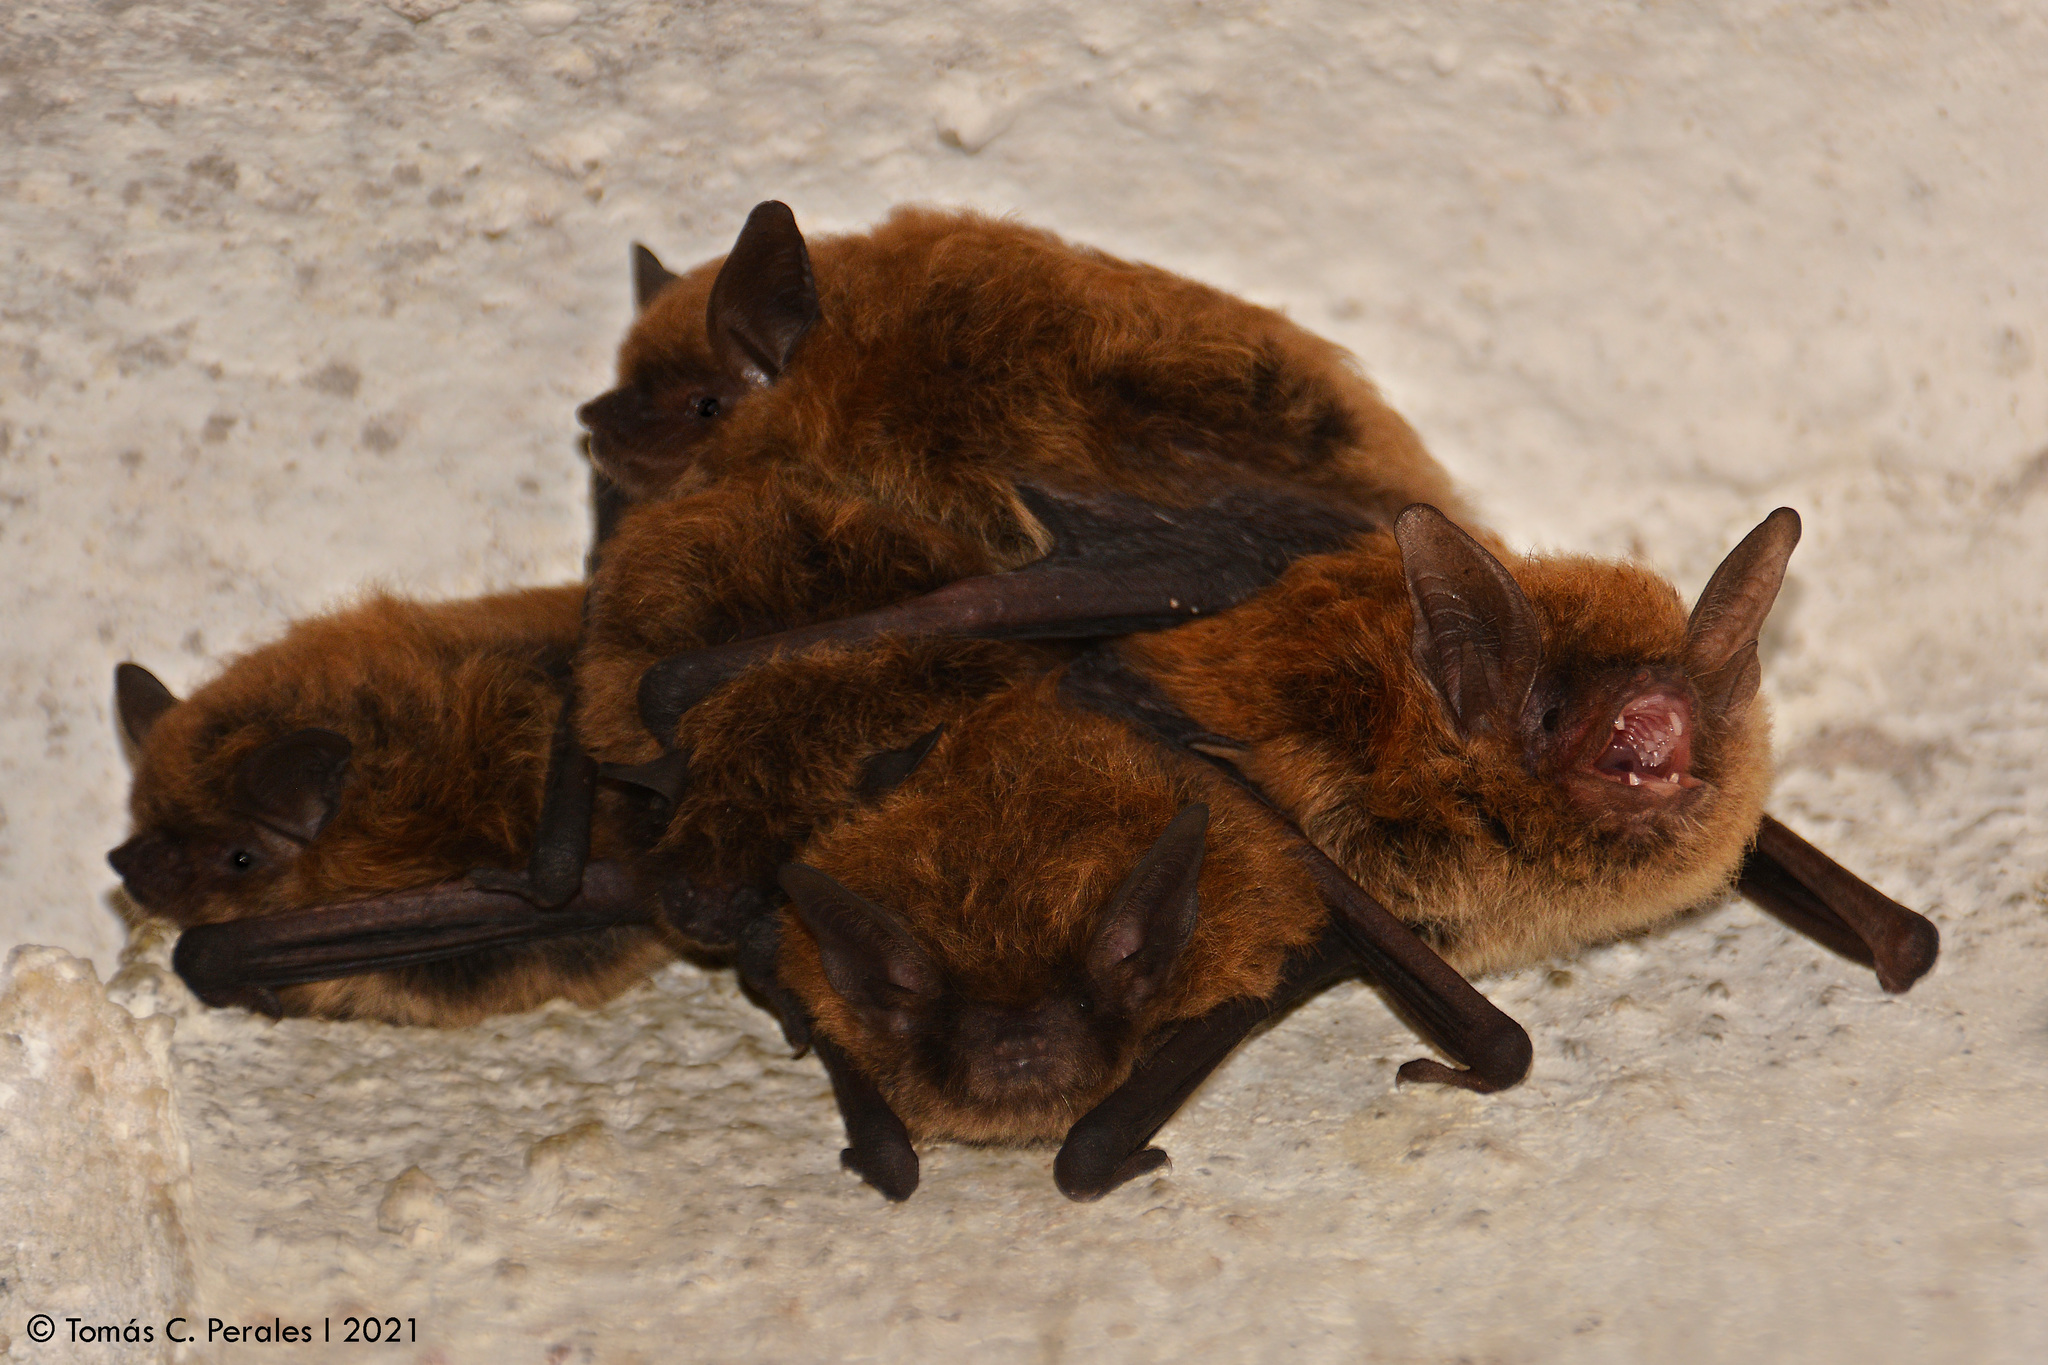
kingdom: Animalia
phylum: Chordata
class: Mammalia
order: Chiroptera
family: Vespertilionidae
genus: Myotis
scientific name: Myotis dinellii
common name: Dinelli's myotis
